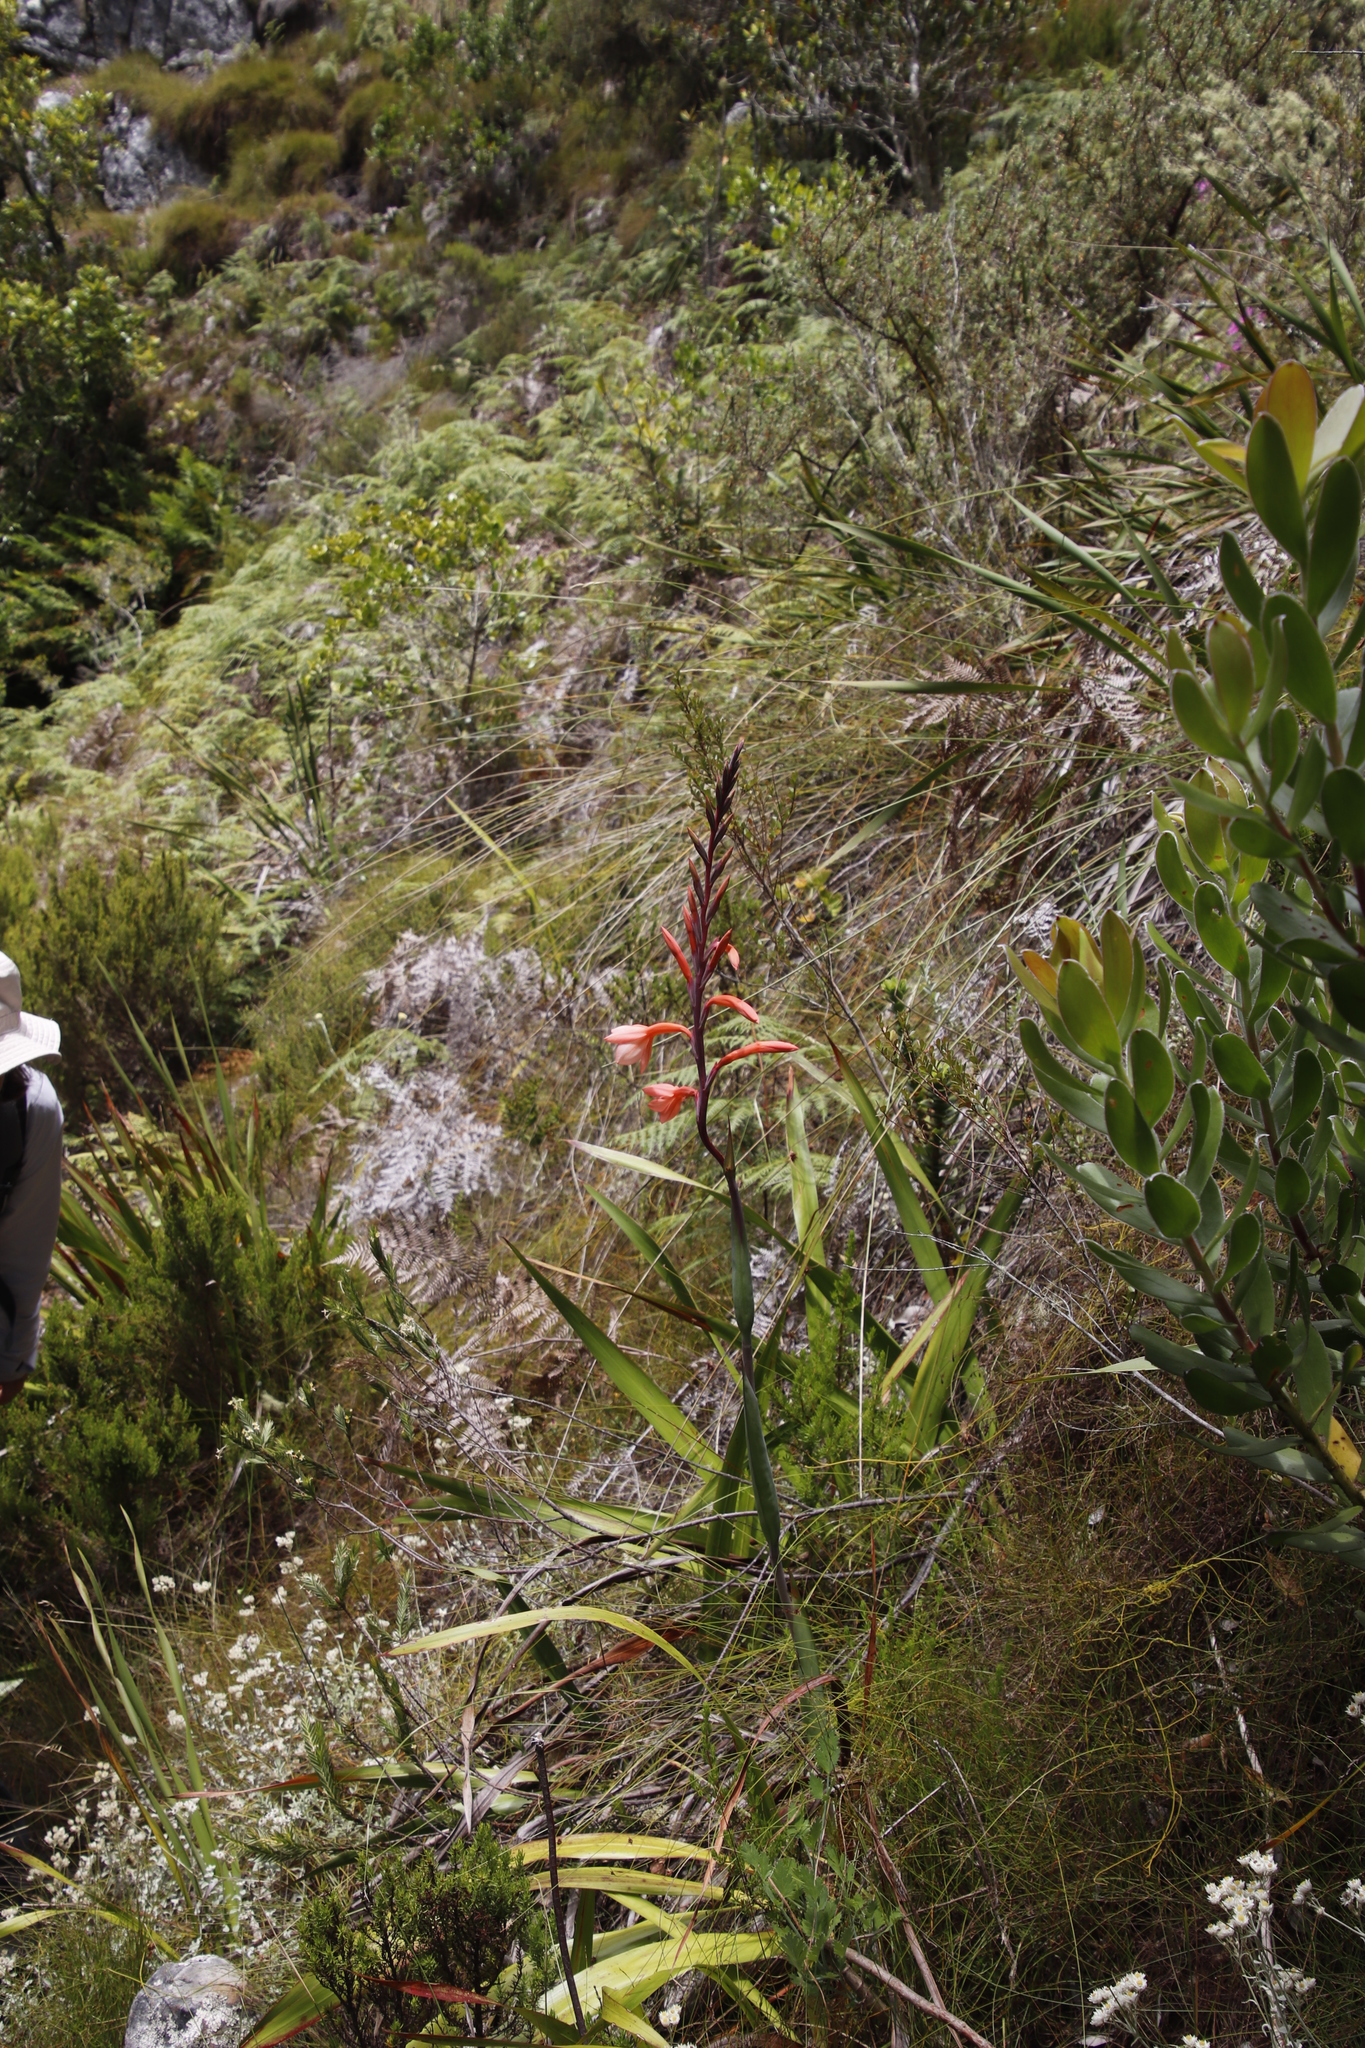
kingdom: Plantae
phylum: Tracheophyta
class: Liliopsida
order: Asparagales
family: Iridaceae
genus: Watsonia
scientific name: Watsonia tabularis
